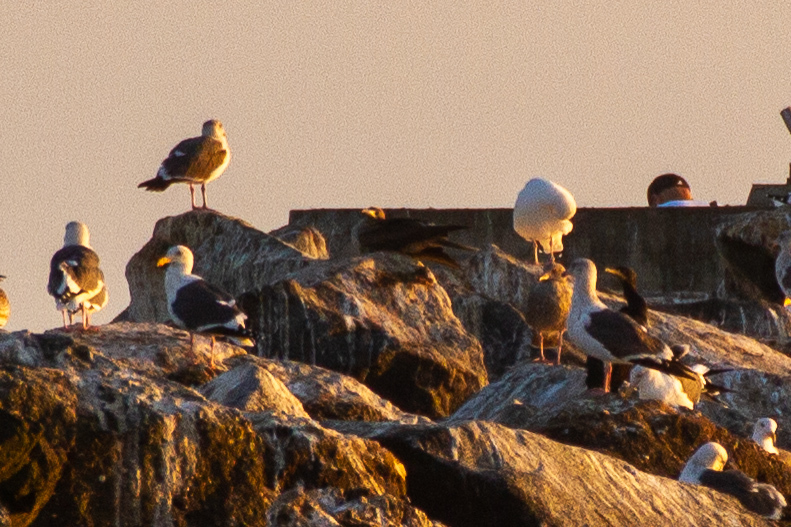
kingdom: Animalia
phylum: Chordata
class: Aves
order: Suliformes
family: Sulidae
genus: Sula
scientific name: Sula sula
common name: Red-footed booby
